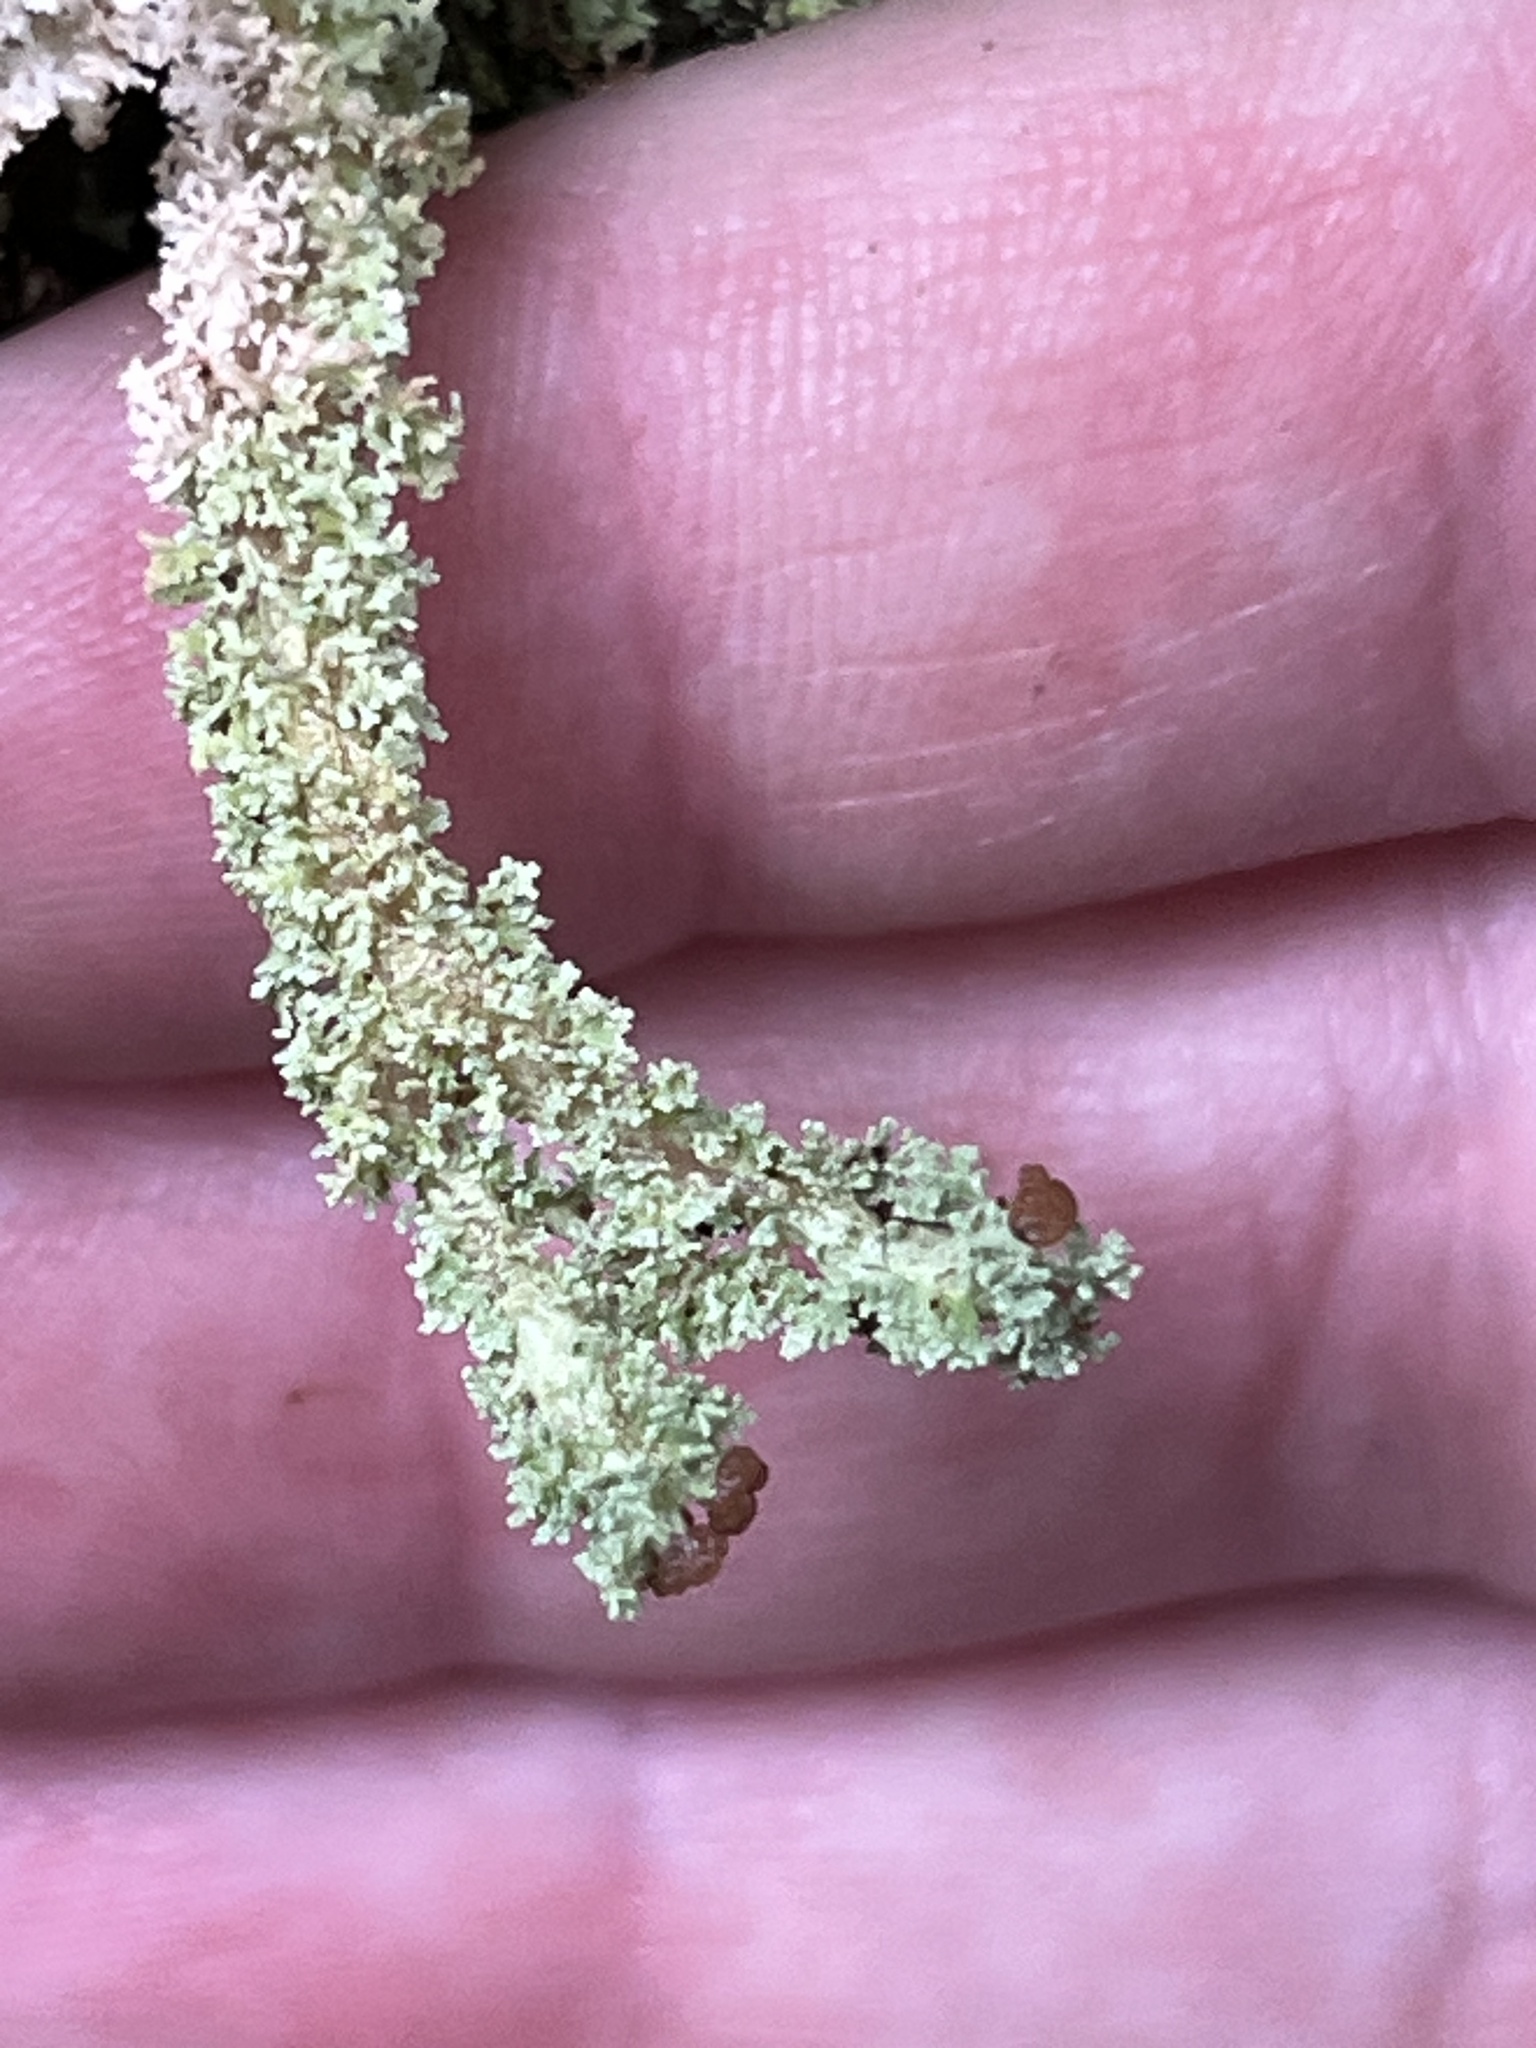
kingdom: Fungi
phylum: Ascomycota
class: Lecanoromycetes
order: Lecanorales
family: Cladoniaceae
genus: Cladonia
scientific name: Cladonia squamosa
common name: Dragon horn
